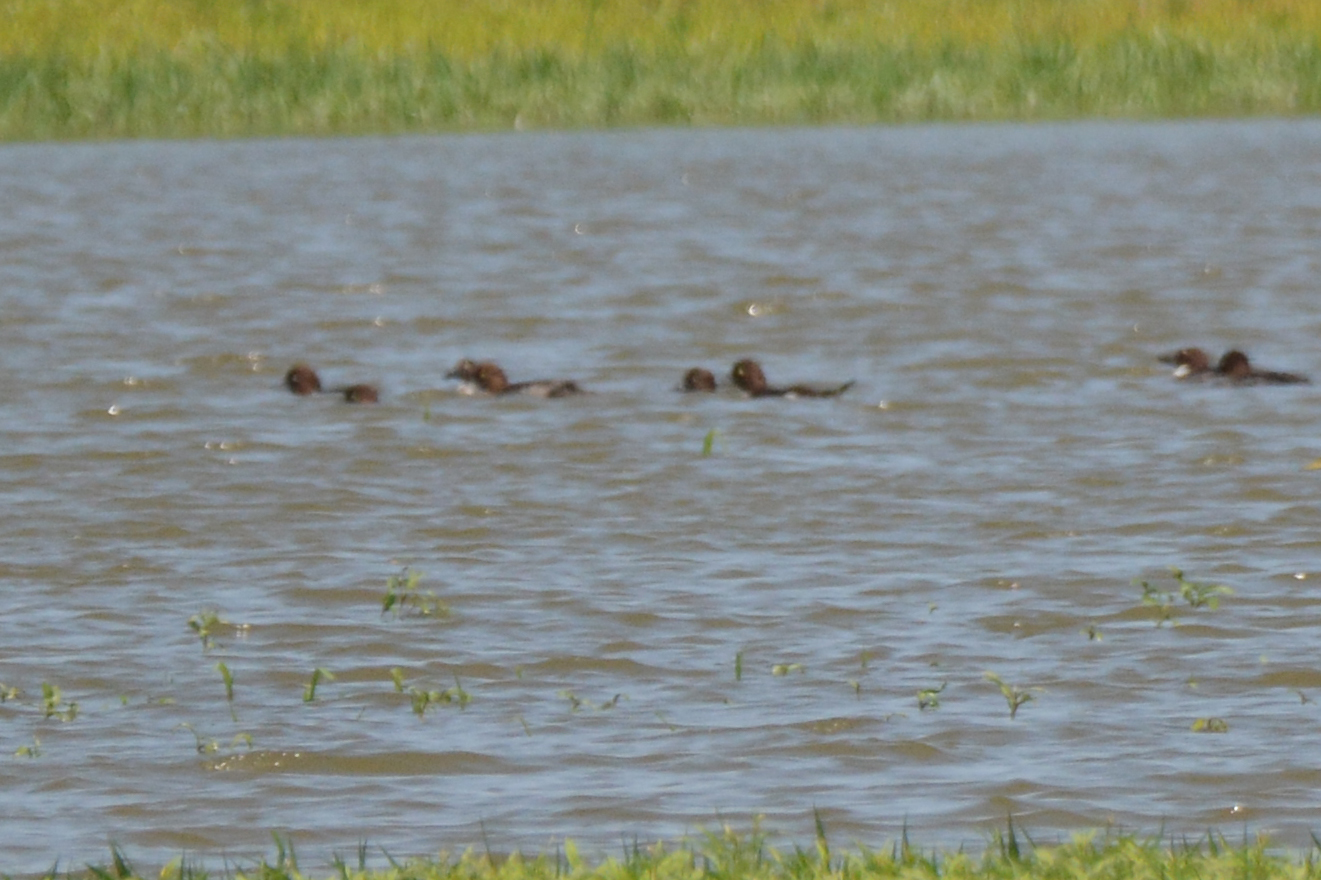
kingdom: Animalia
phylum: Chordata
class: Aves
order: Anseriformes
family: Anatidae
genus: Bucephala
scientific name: Bucephala clangula
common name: Common goldeneye
